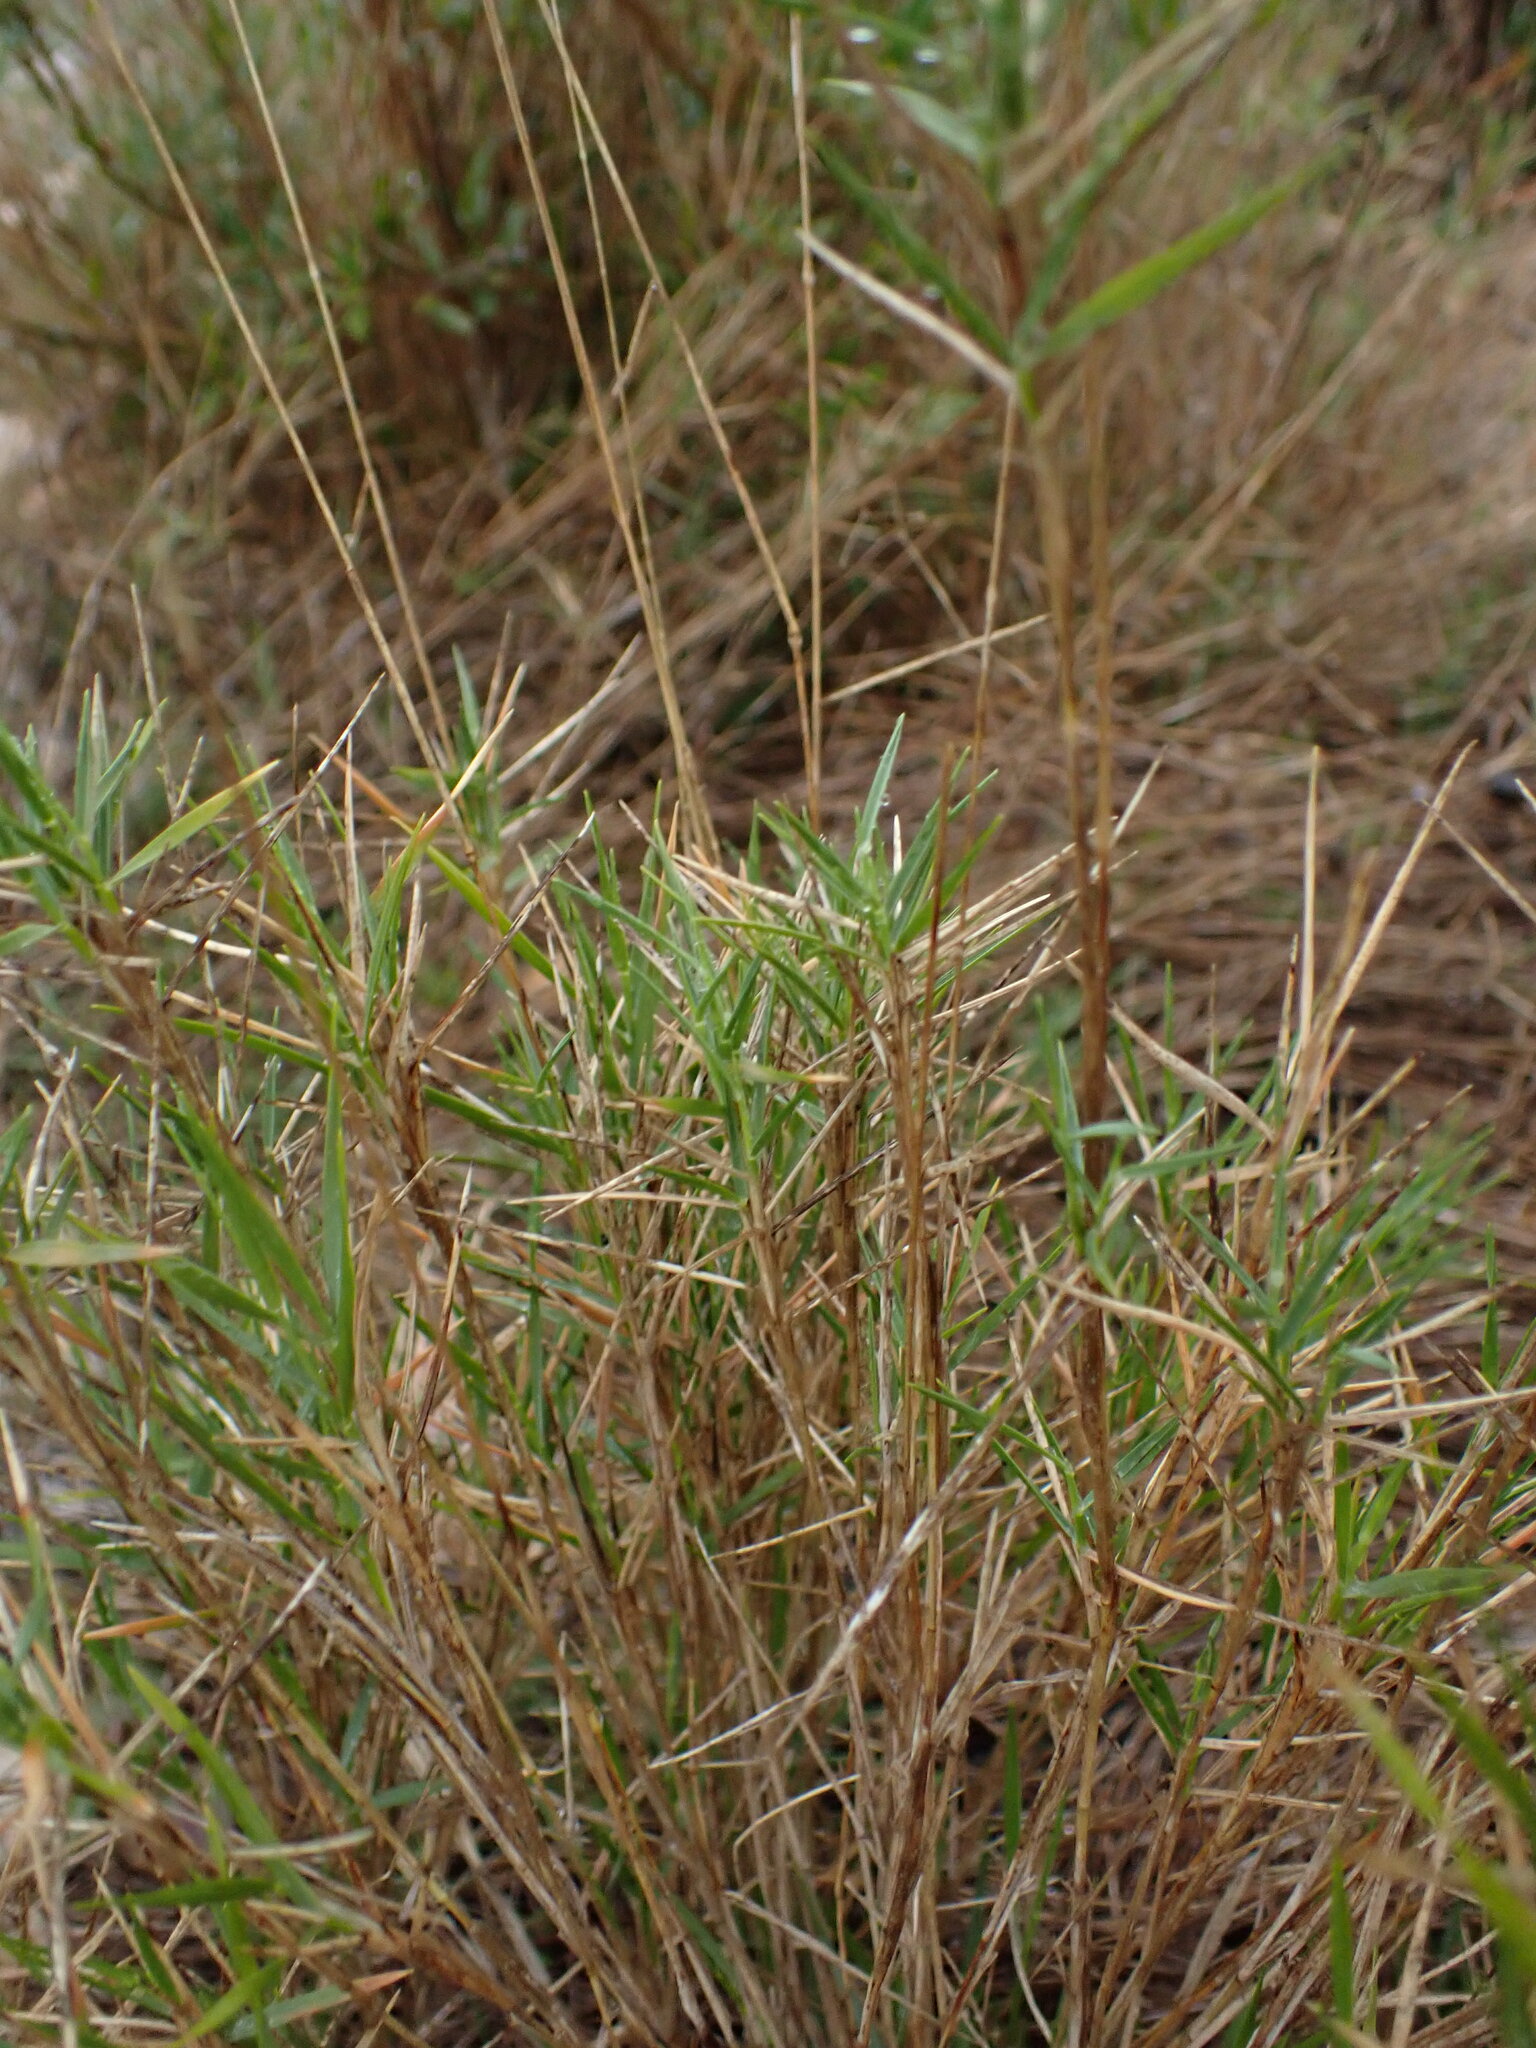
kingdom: Plantae
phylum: Tracheophyta
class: Liliopsida
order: Poales
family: Poaceae
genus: Brachypodium
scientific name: Brachypodium retusum
